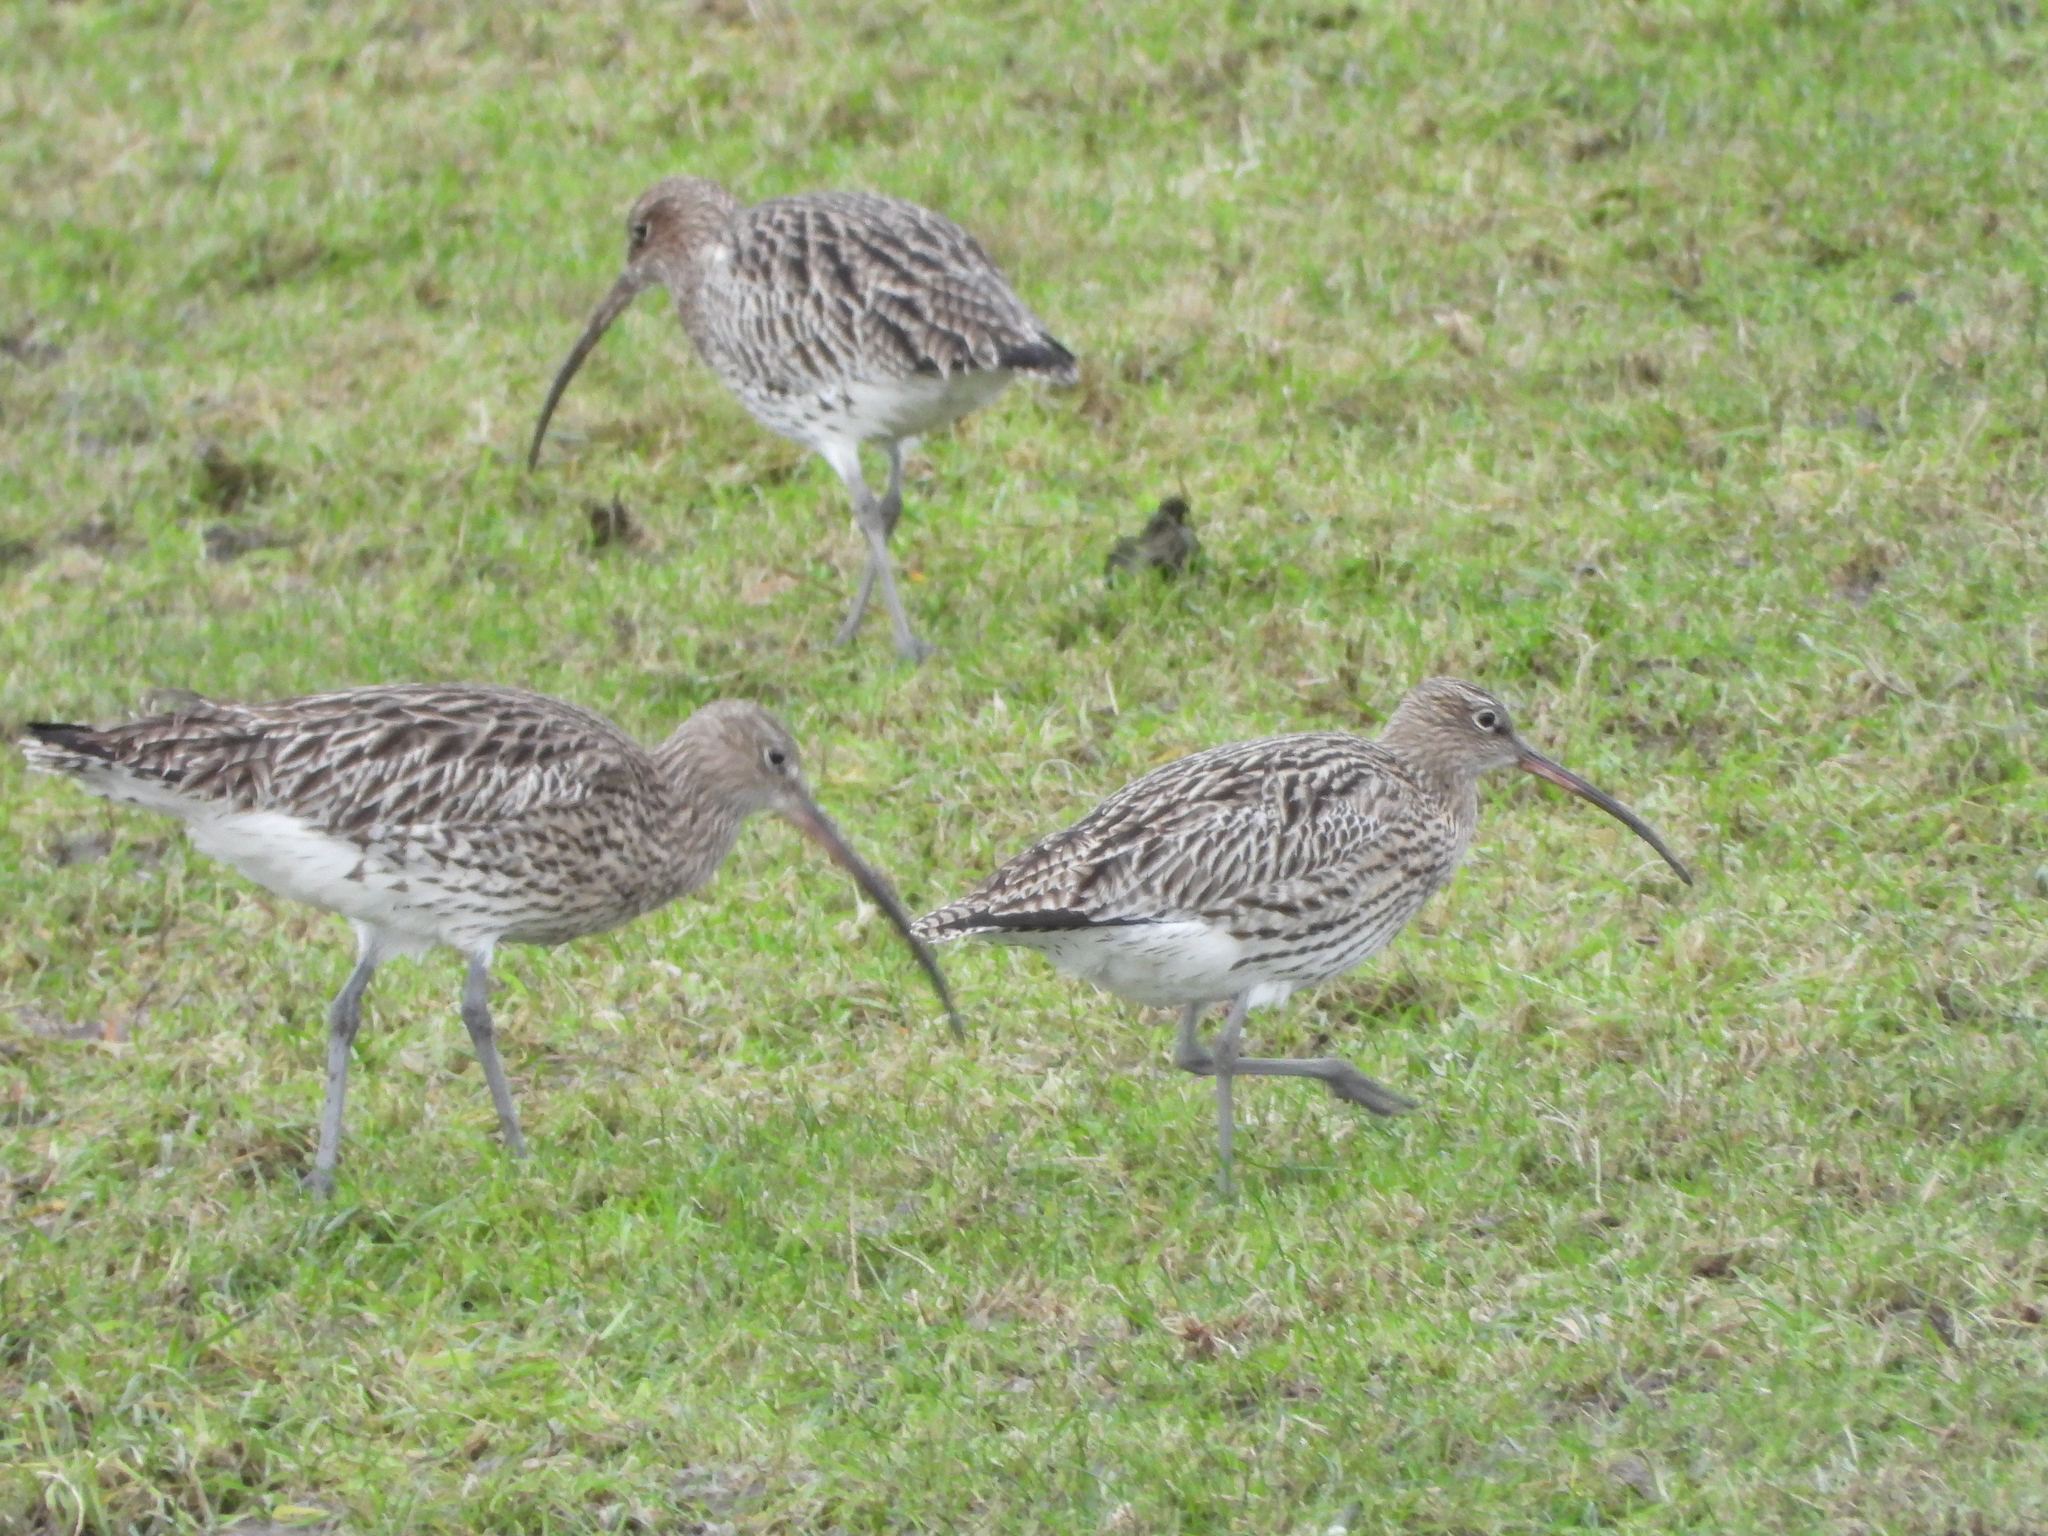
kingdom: Animalia
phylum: Chordata
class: Aves
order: Charadriiformes
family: Scolopacidae
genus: Numenius
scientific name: Numenius arquata
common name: Eurasian curlew
